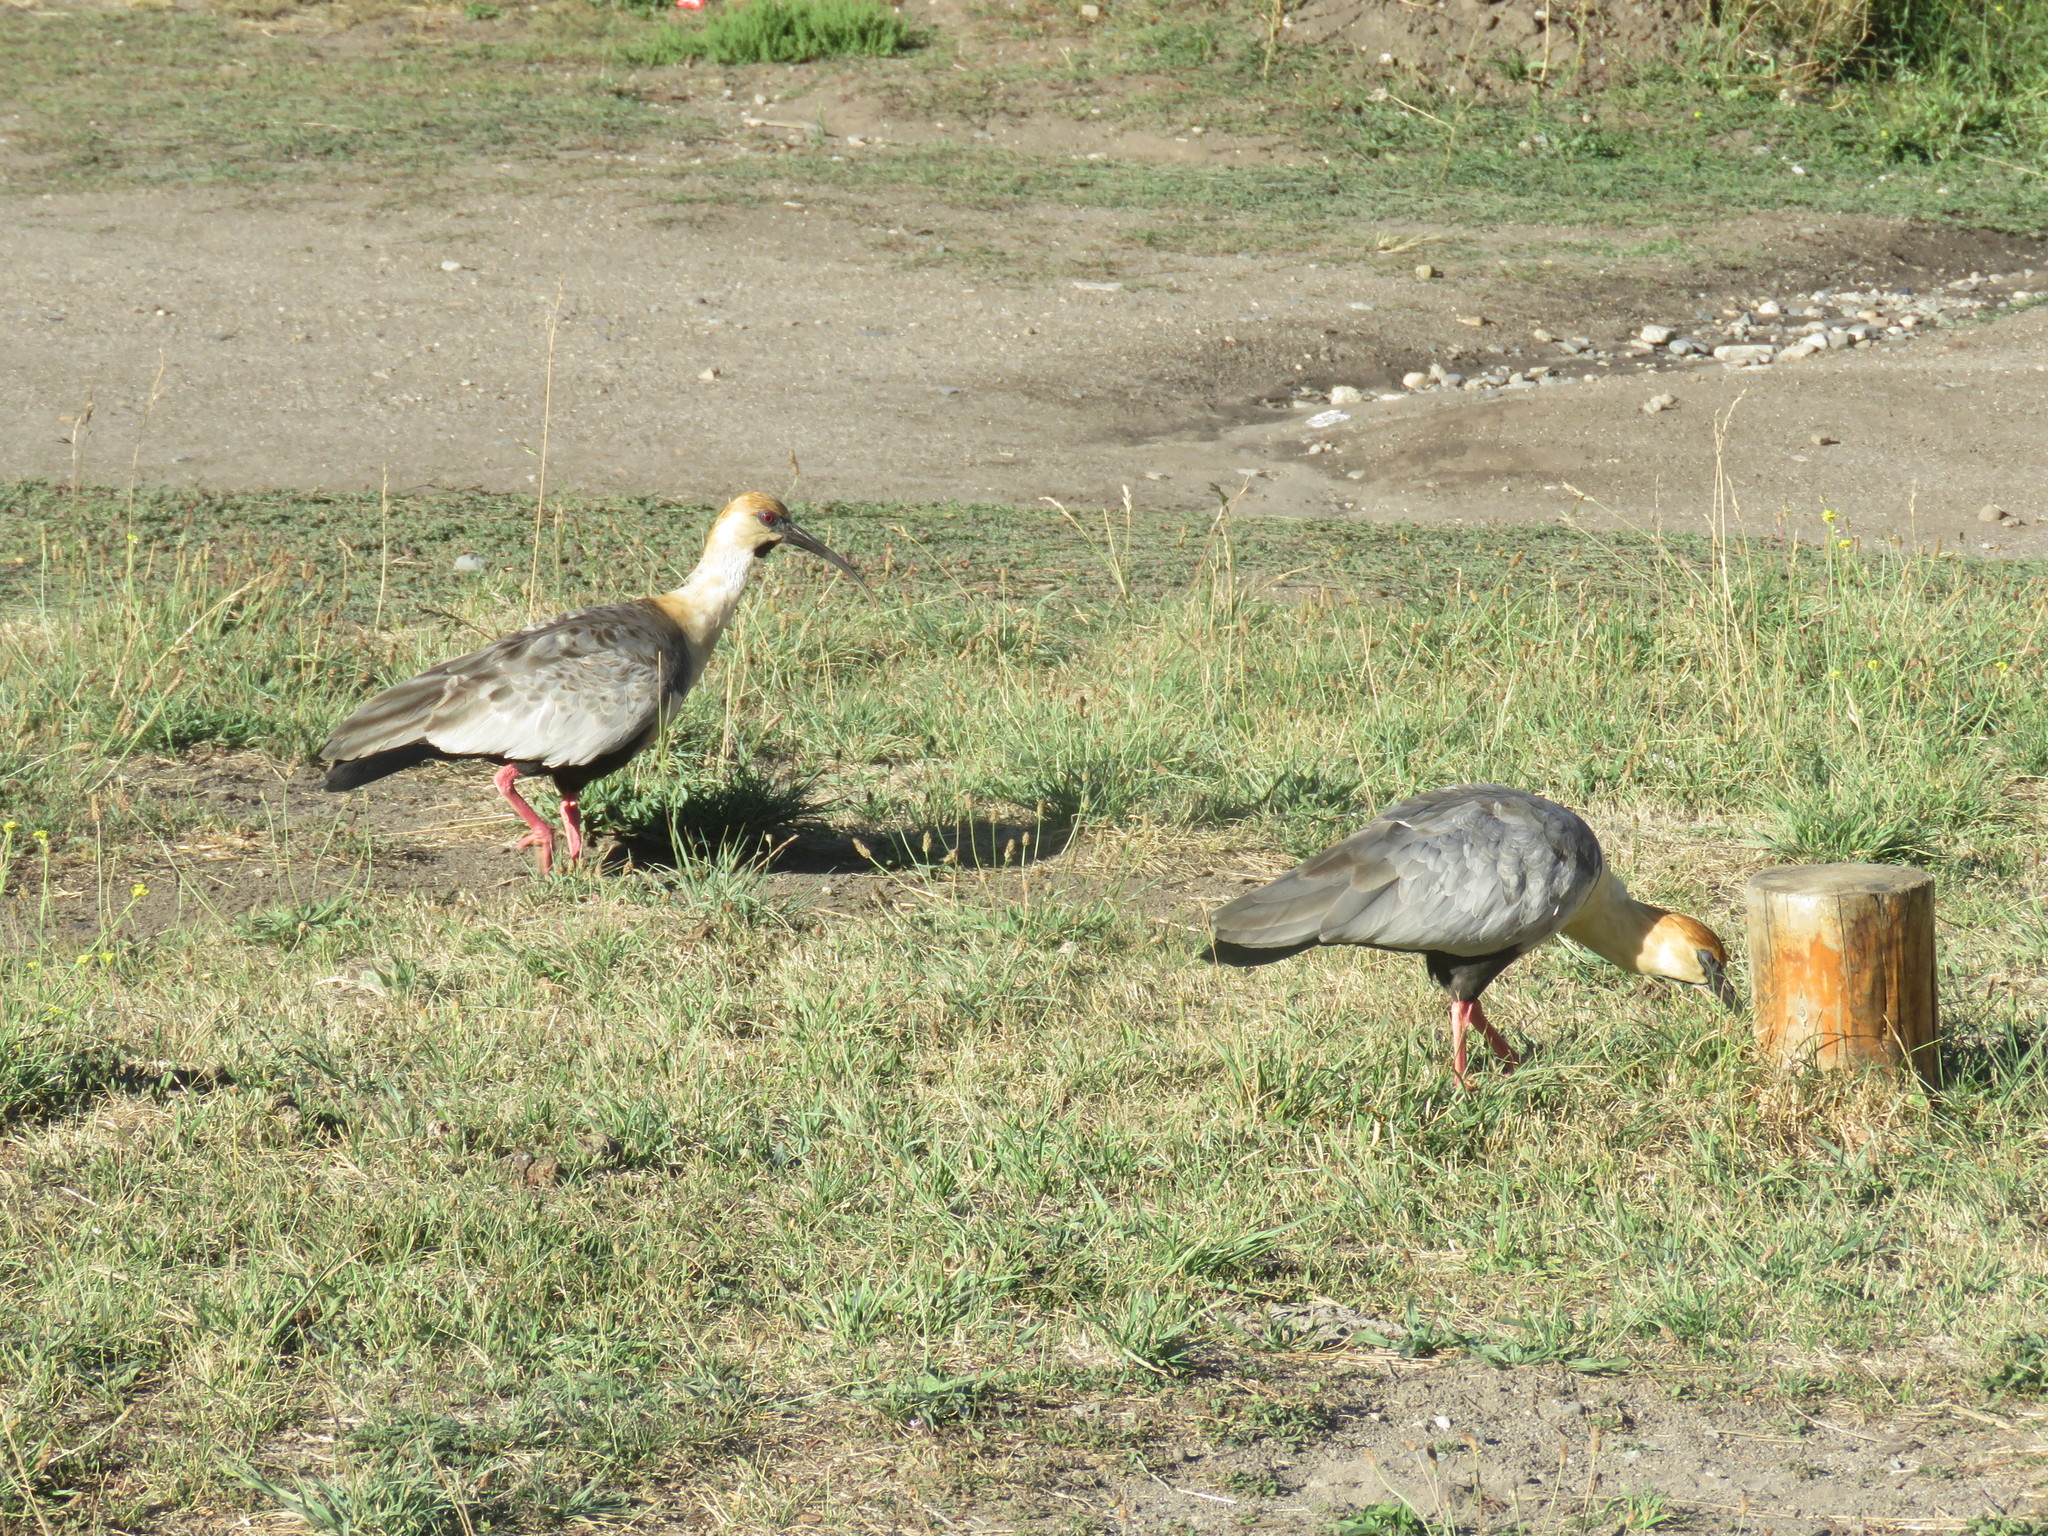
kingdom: Animalia
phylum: Chordata
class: Aves
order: Pelecaniformes
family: Threskiornithidae
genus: Theristicus
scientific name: Theristicus melanopis
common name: Black-faced ibis
